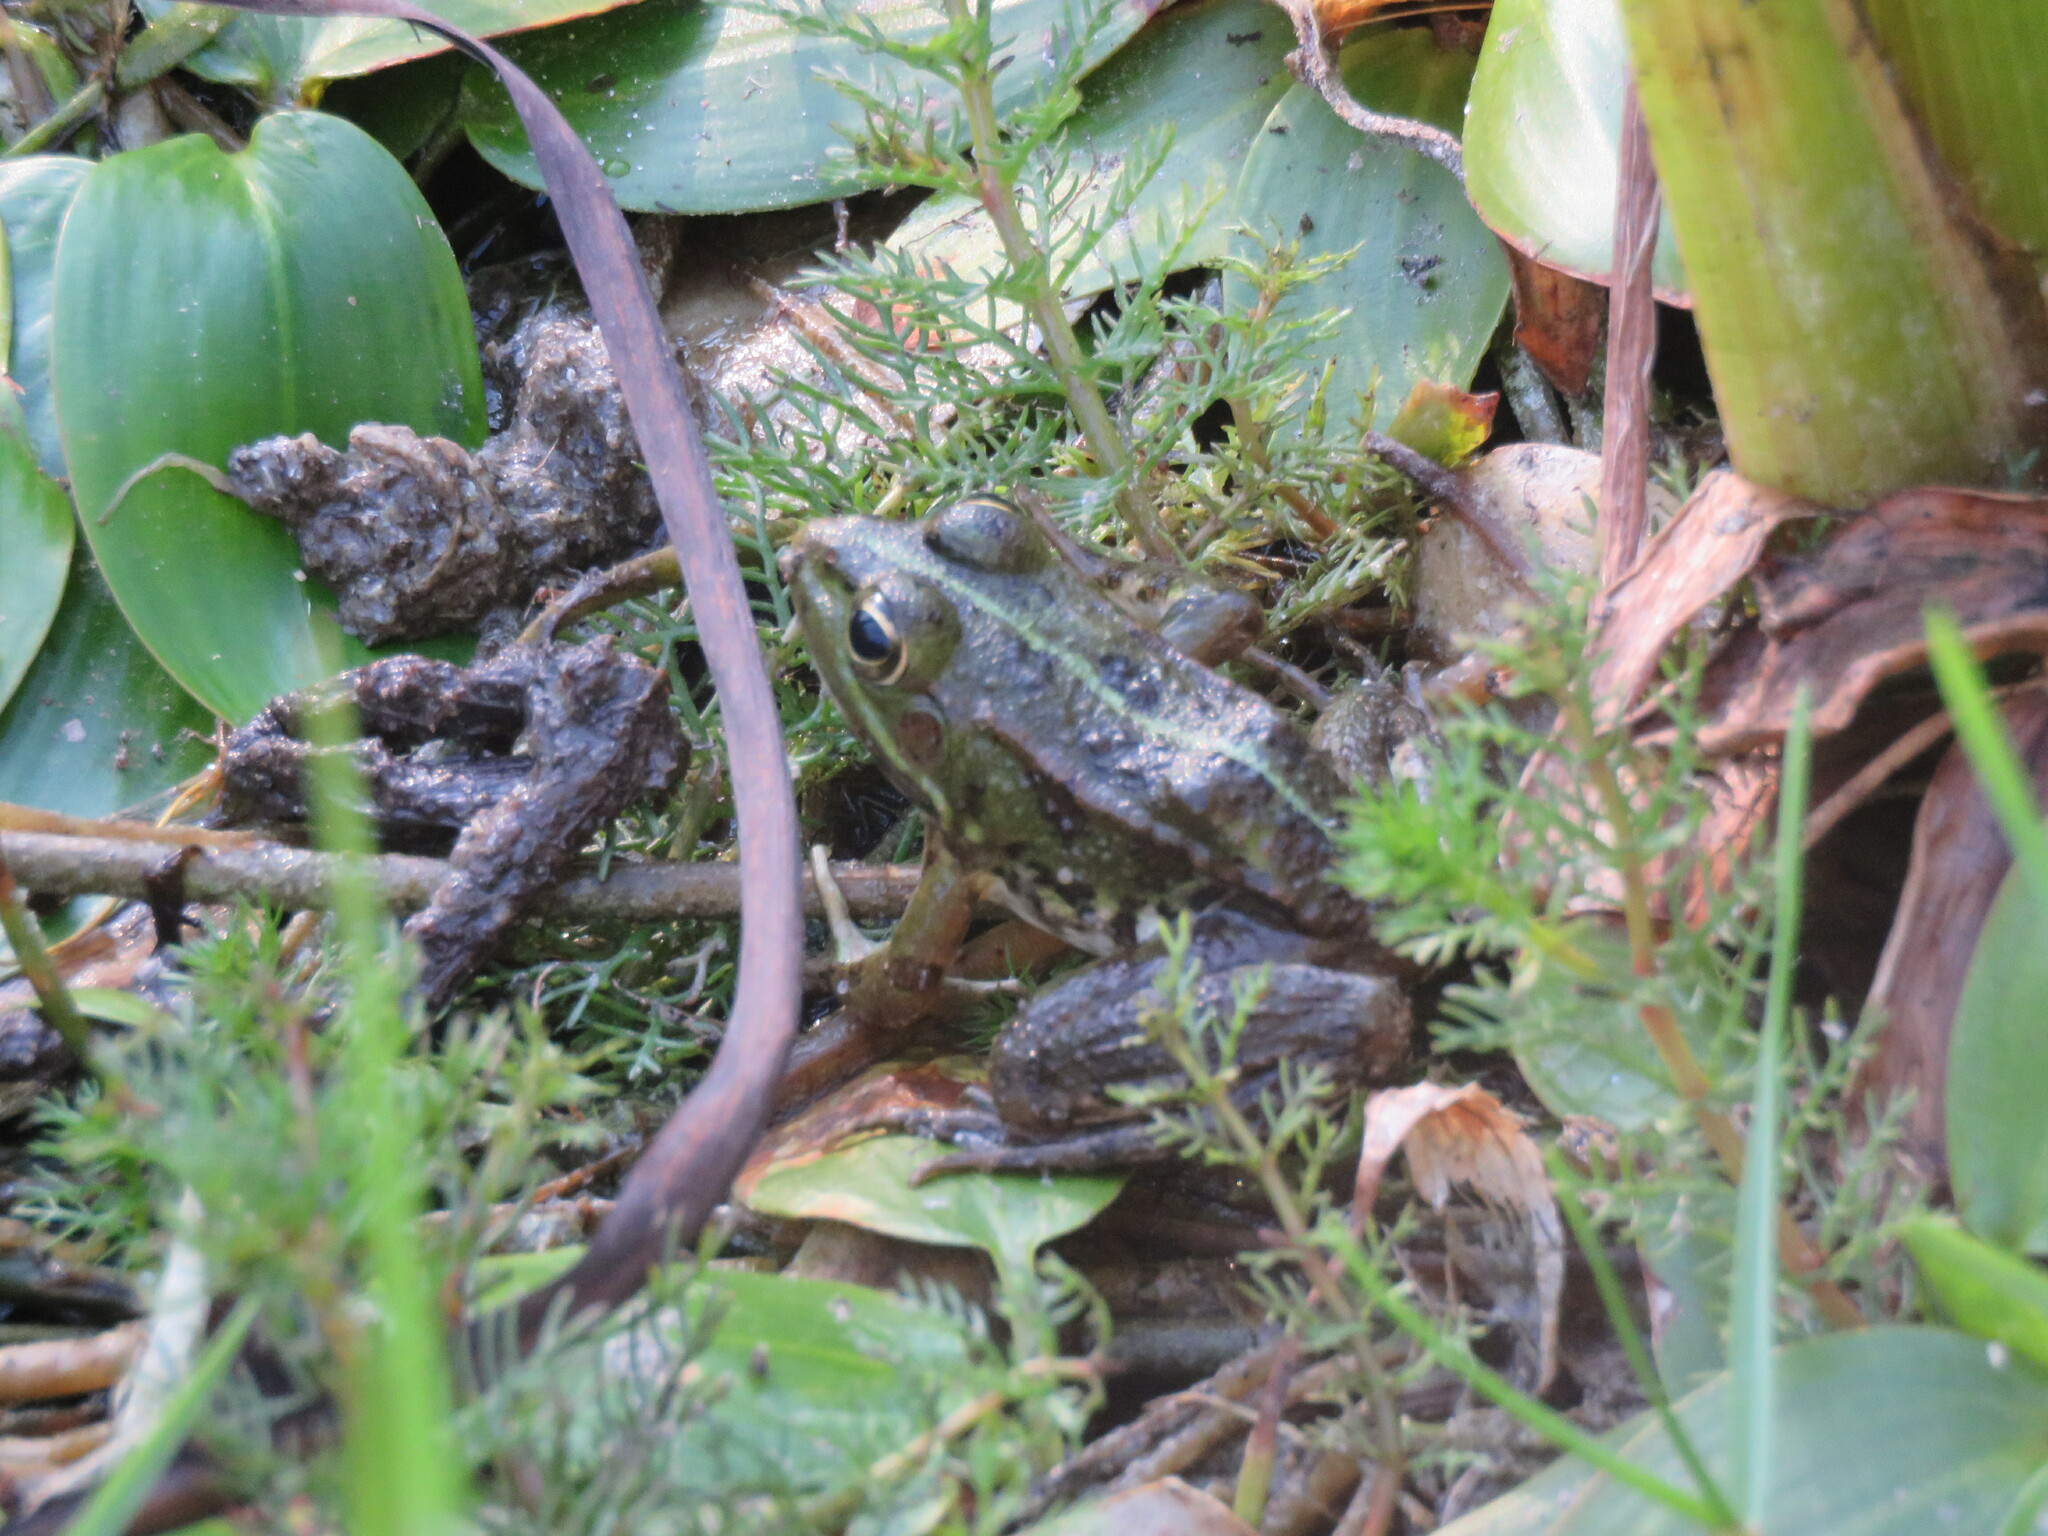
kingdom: Animalia
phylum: Chordata
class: Amphibia
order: Anura
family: Ranidae
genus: Pelophylax
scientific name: Pelophylax perezi
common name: Perez's frog
